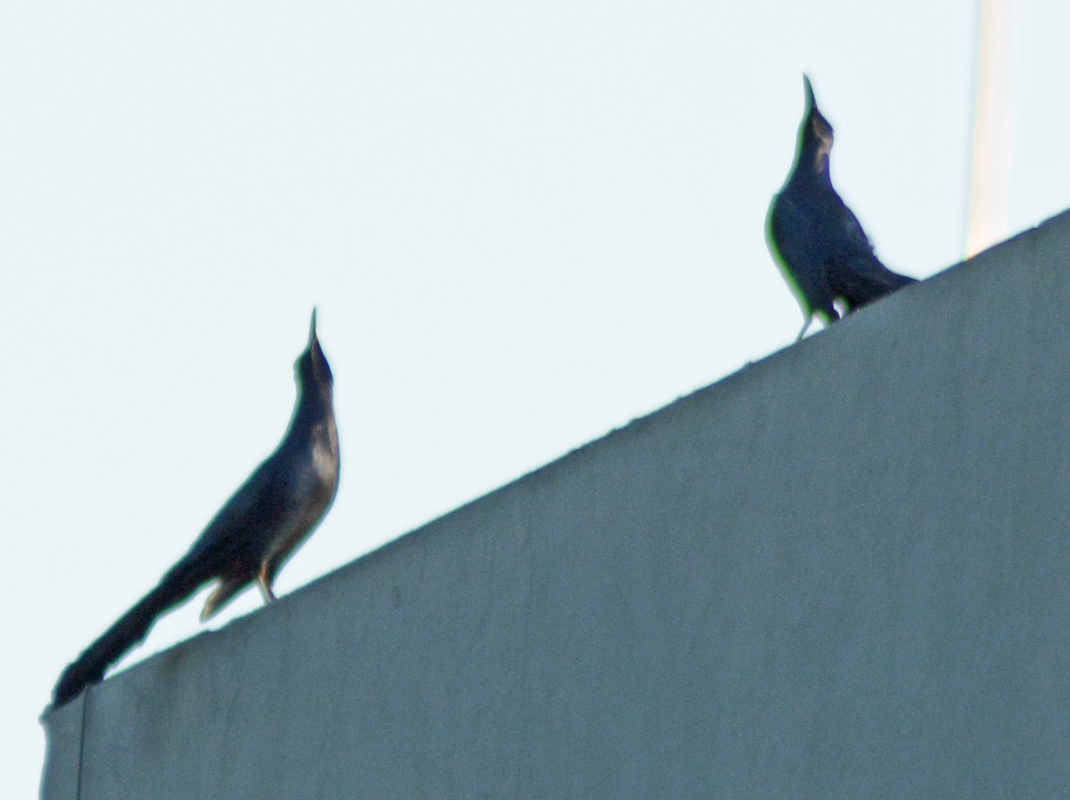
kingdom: Animalia
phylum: Chordata
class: Aves
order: Passeriformes
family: Icteridae
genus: Quiscalus
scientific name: Quiscalus mexicanus
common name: Great-tailed grackle
